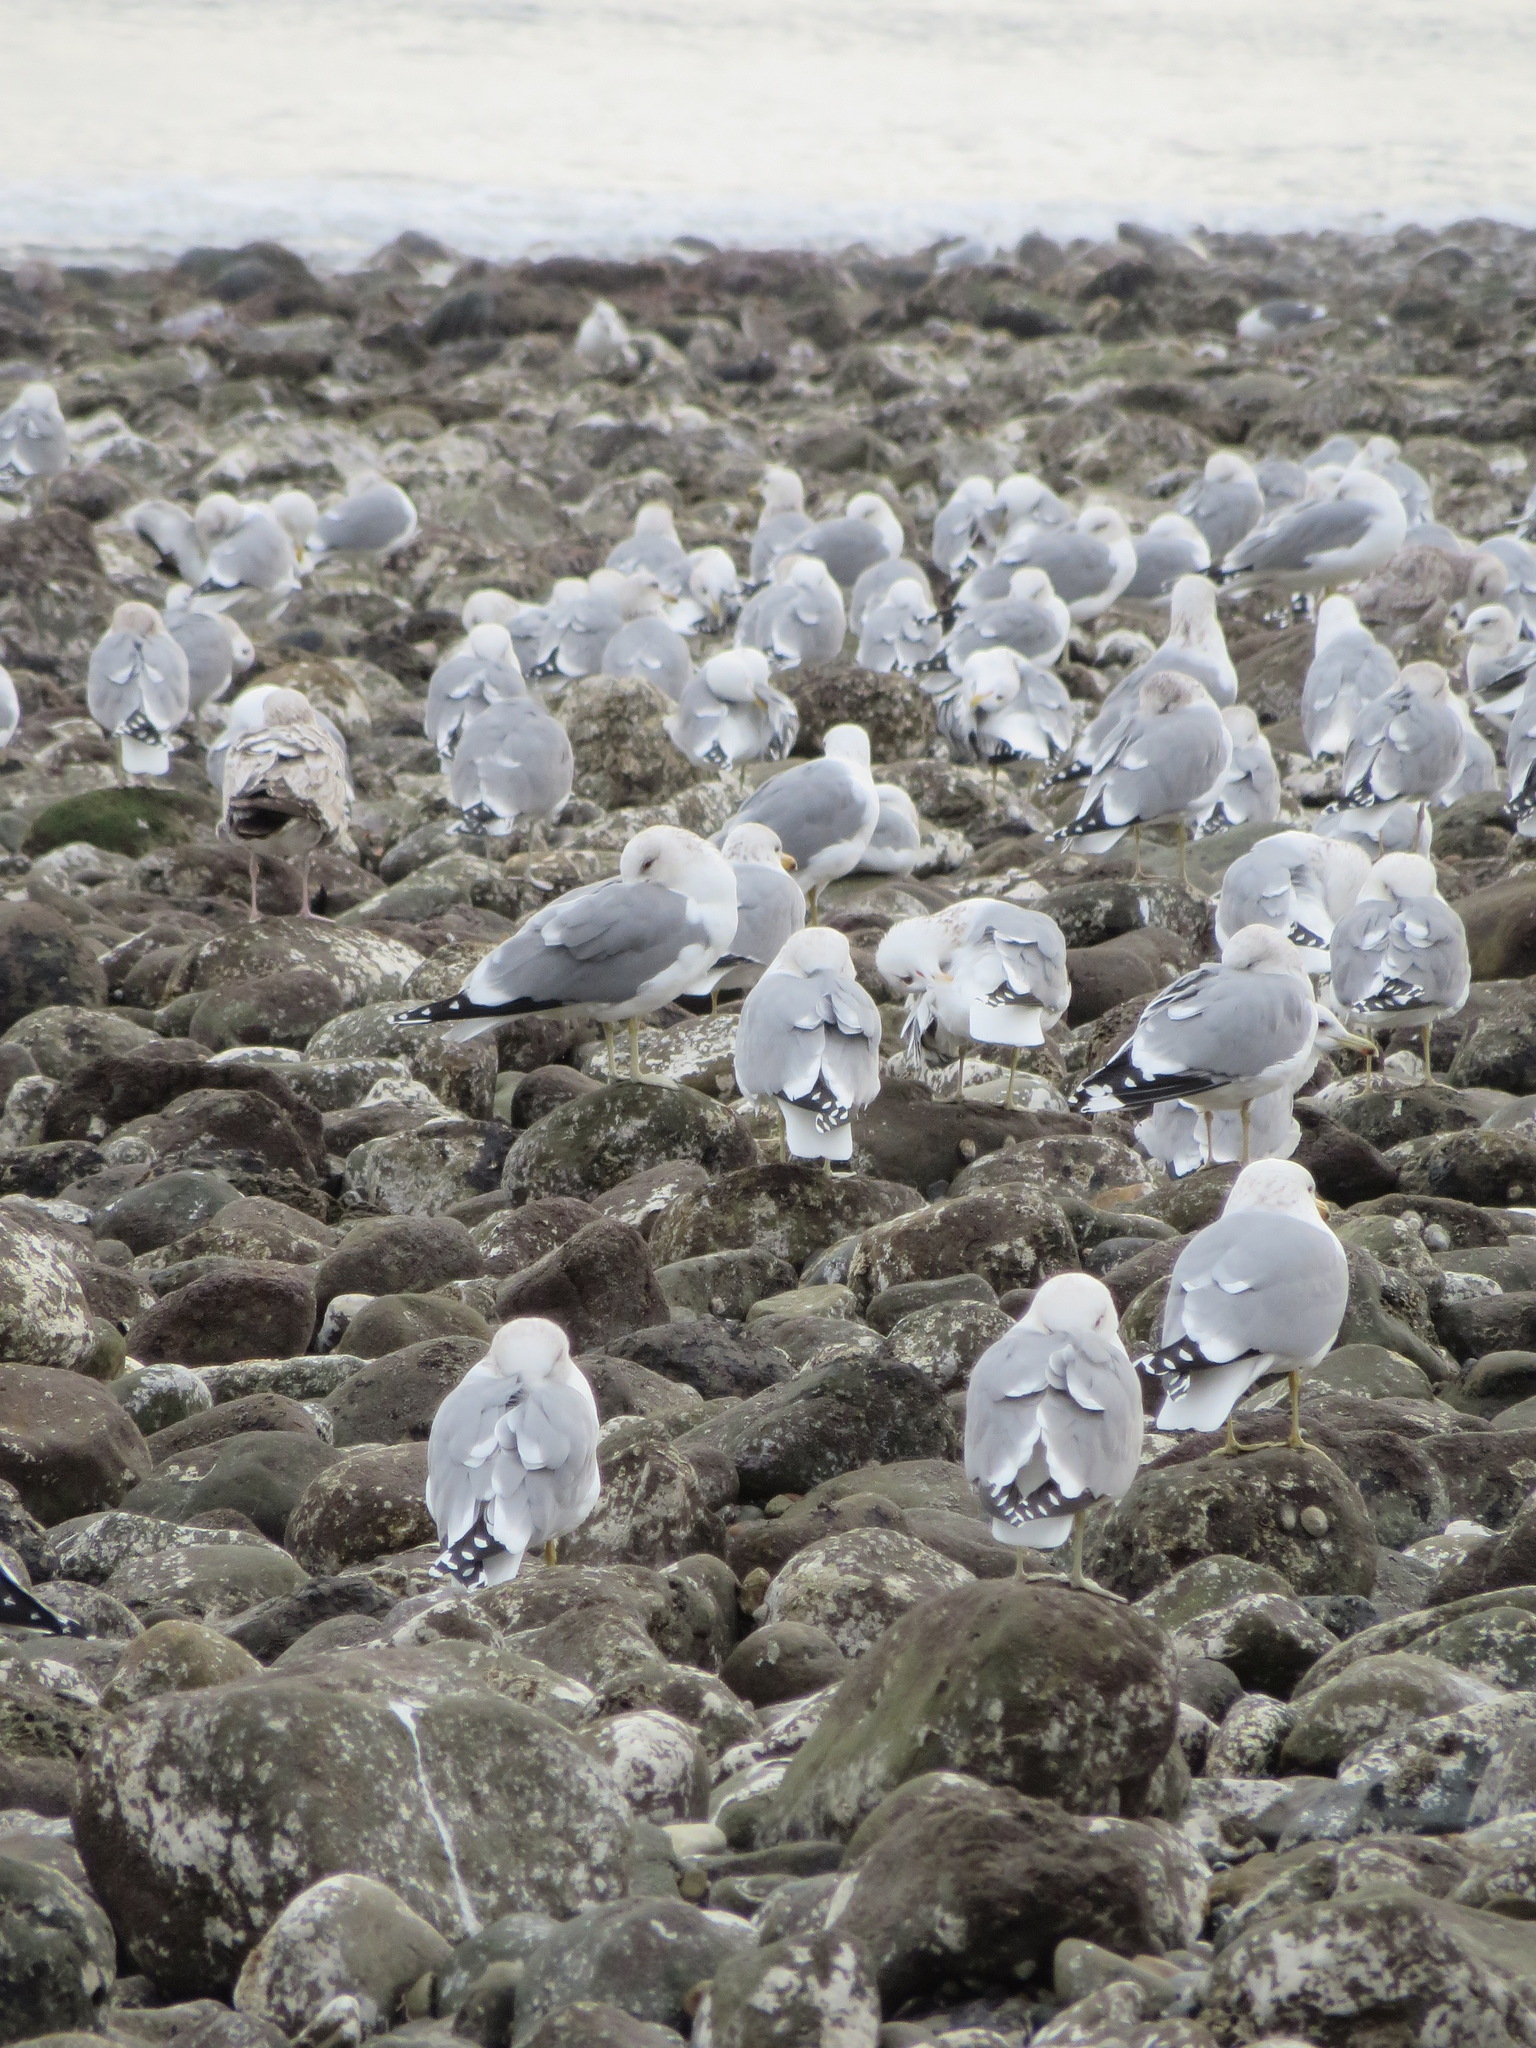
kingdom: Animalia
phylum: Chordata
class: Aves
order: Charadriiformes
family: Laridae
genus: Larus
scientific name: Larus californicus
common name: California gull
